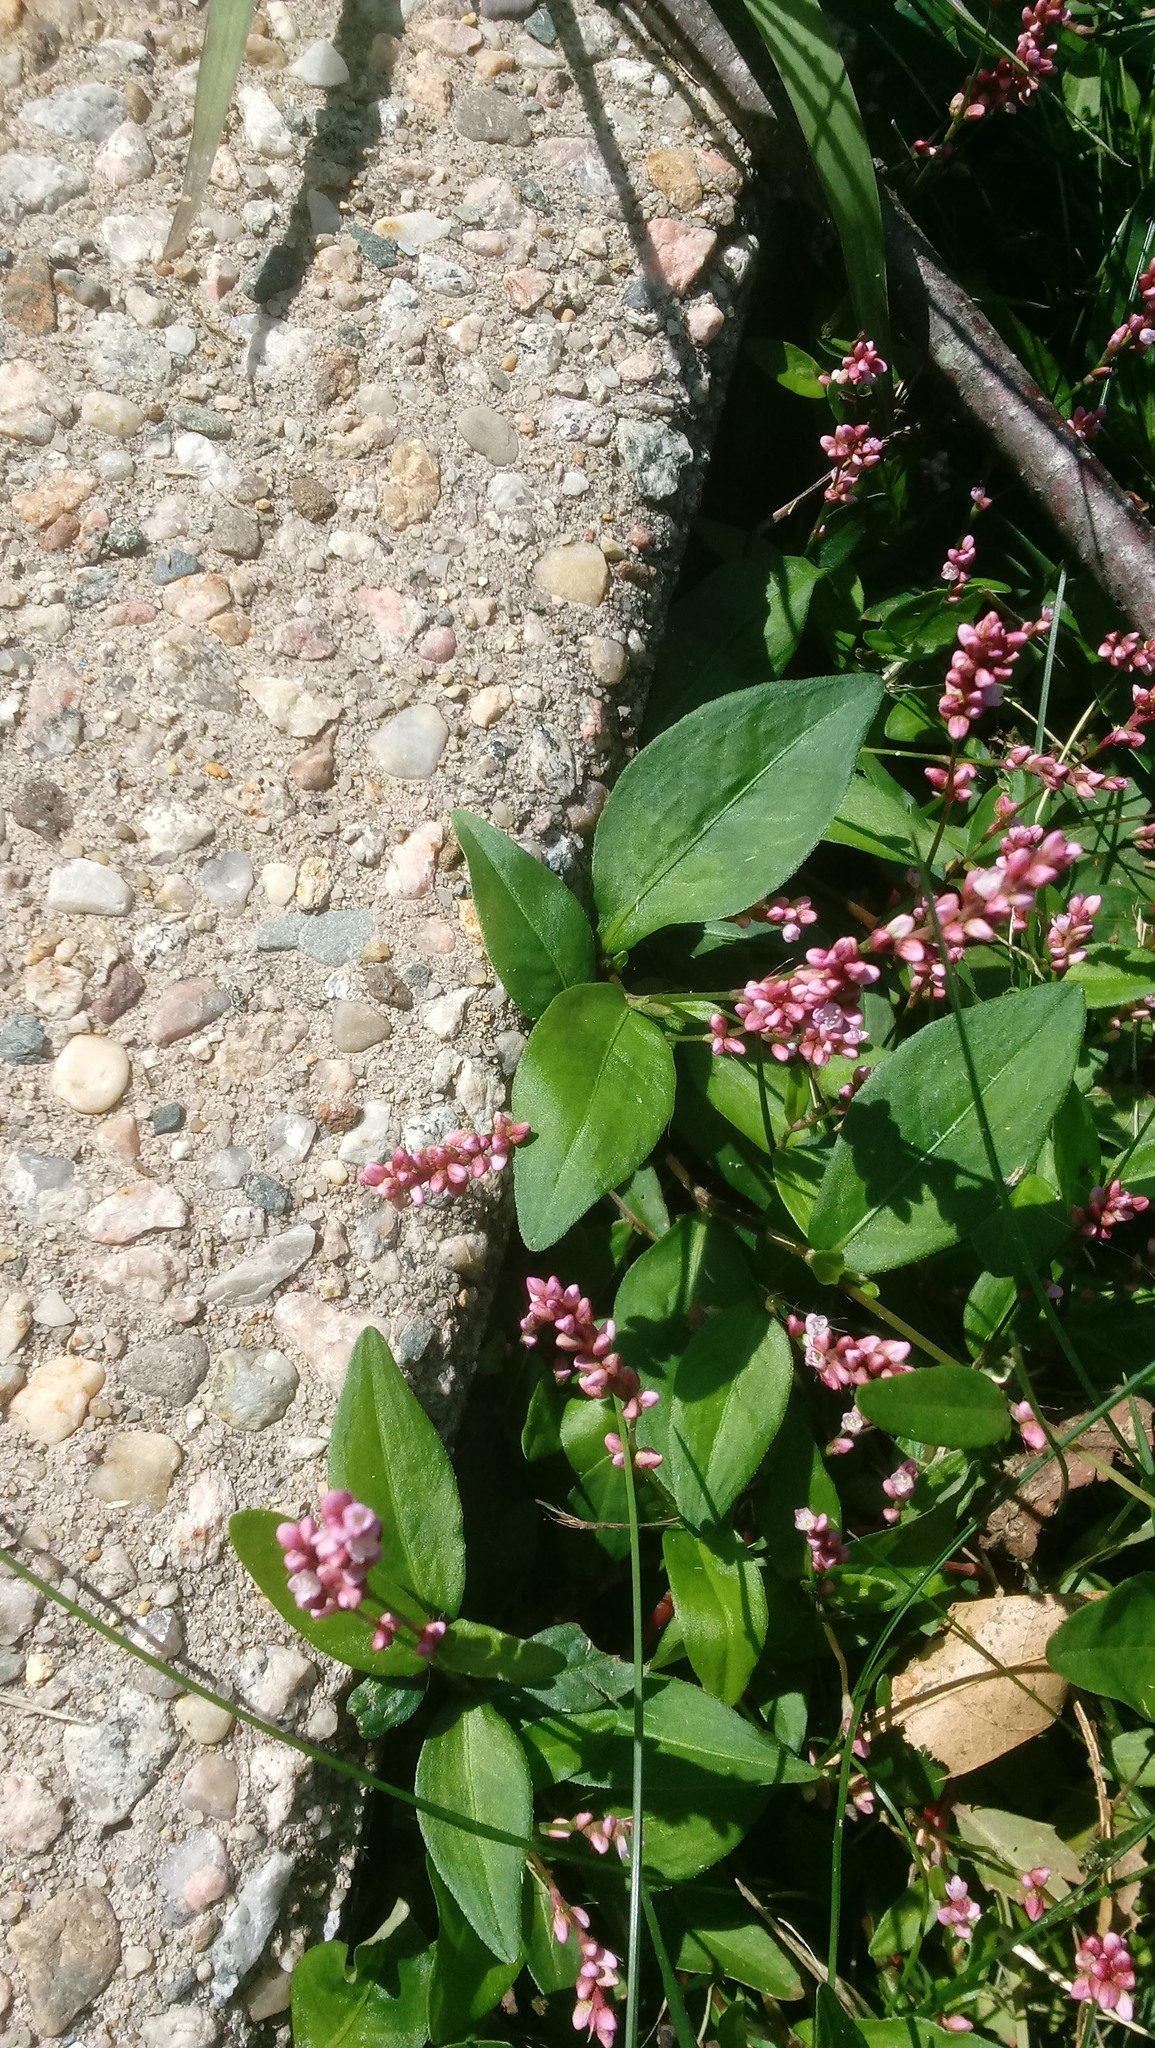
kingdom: Plantae
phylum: Tracheophyta
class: Magnoliopsida
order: Caryophyllales
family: Polygonaceae
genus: Persicaria
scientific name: Persicaria longiseta
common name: Bristly lady's-thumb
